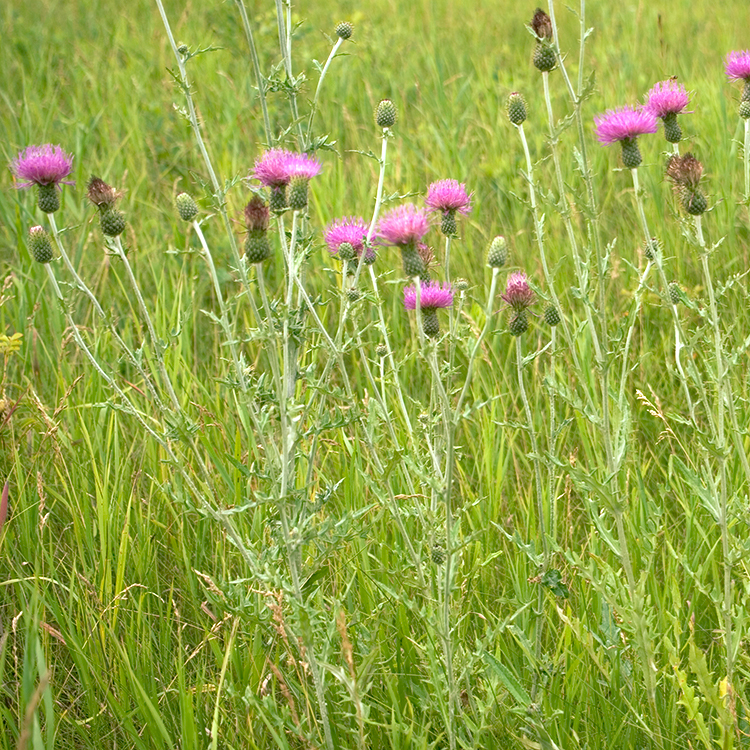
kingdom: Plantae
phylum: Tracheophyta
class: Magnoliopsida
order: Asterales
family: Asteraceae
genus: Cirsium
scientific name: Cirsium flodmanii
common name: Flodman's thistle
